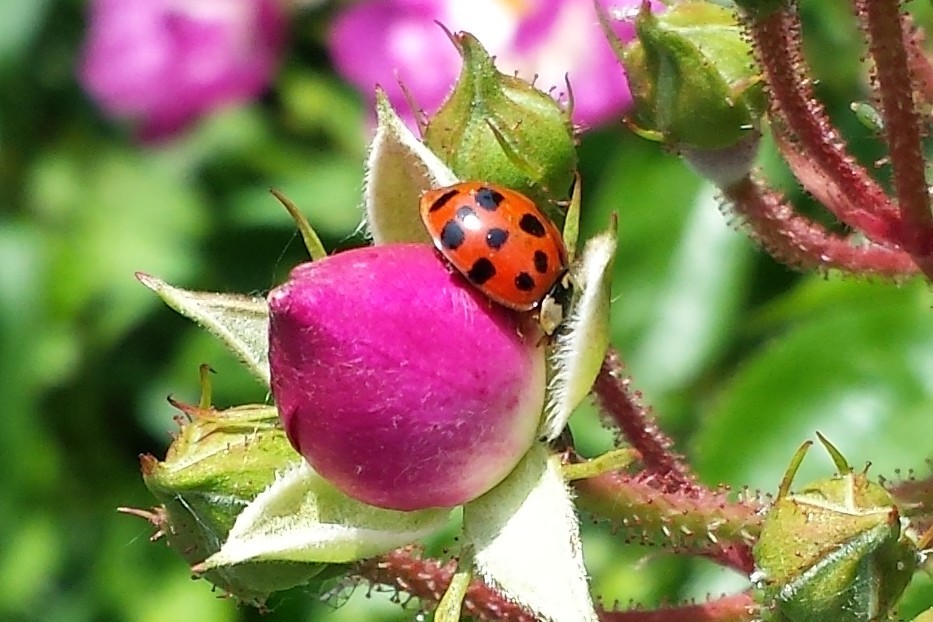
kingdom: Animalia
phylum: Arthropoda
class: Insecta
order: Coleoptera
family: Coccinellidae
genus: Harmonia
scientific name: Harmonia axyridis
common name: Harlequin ladybird
